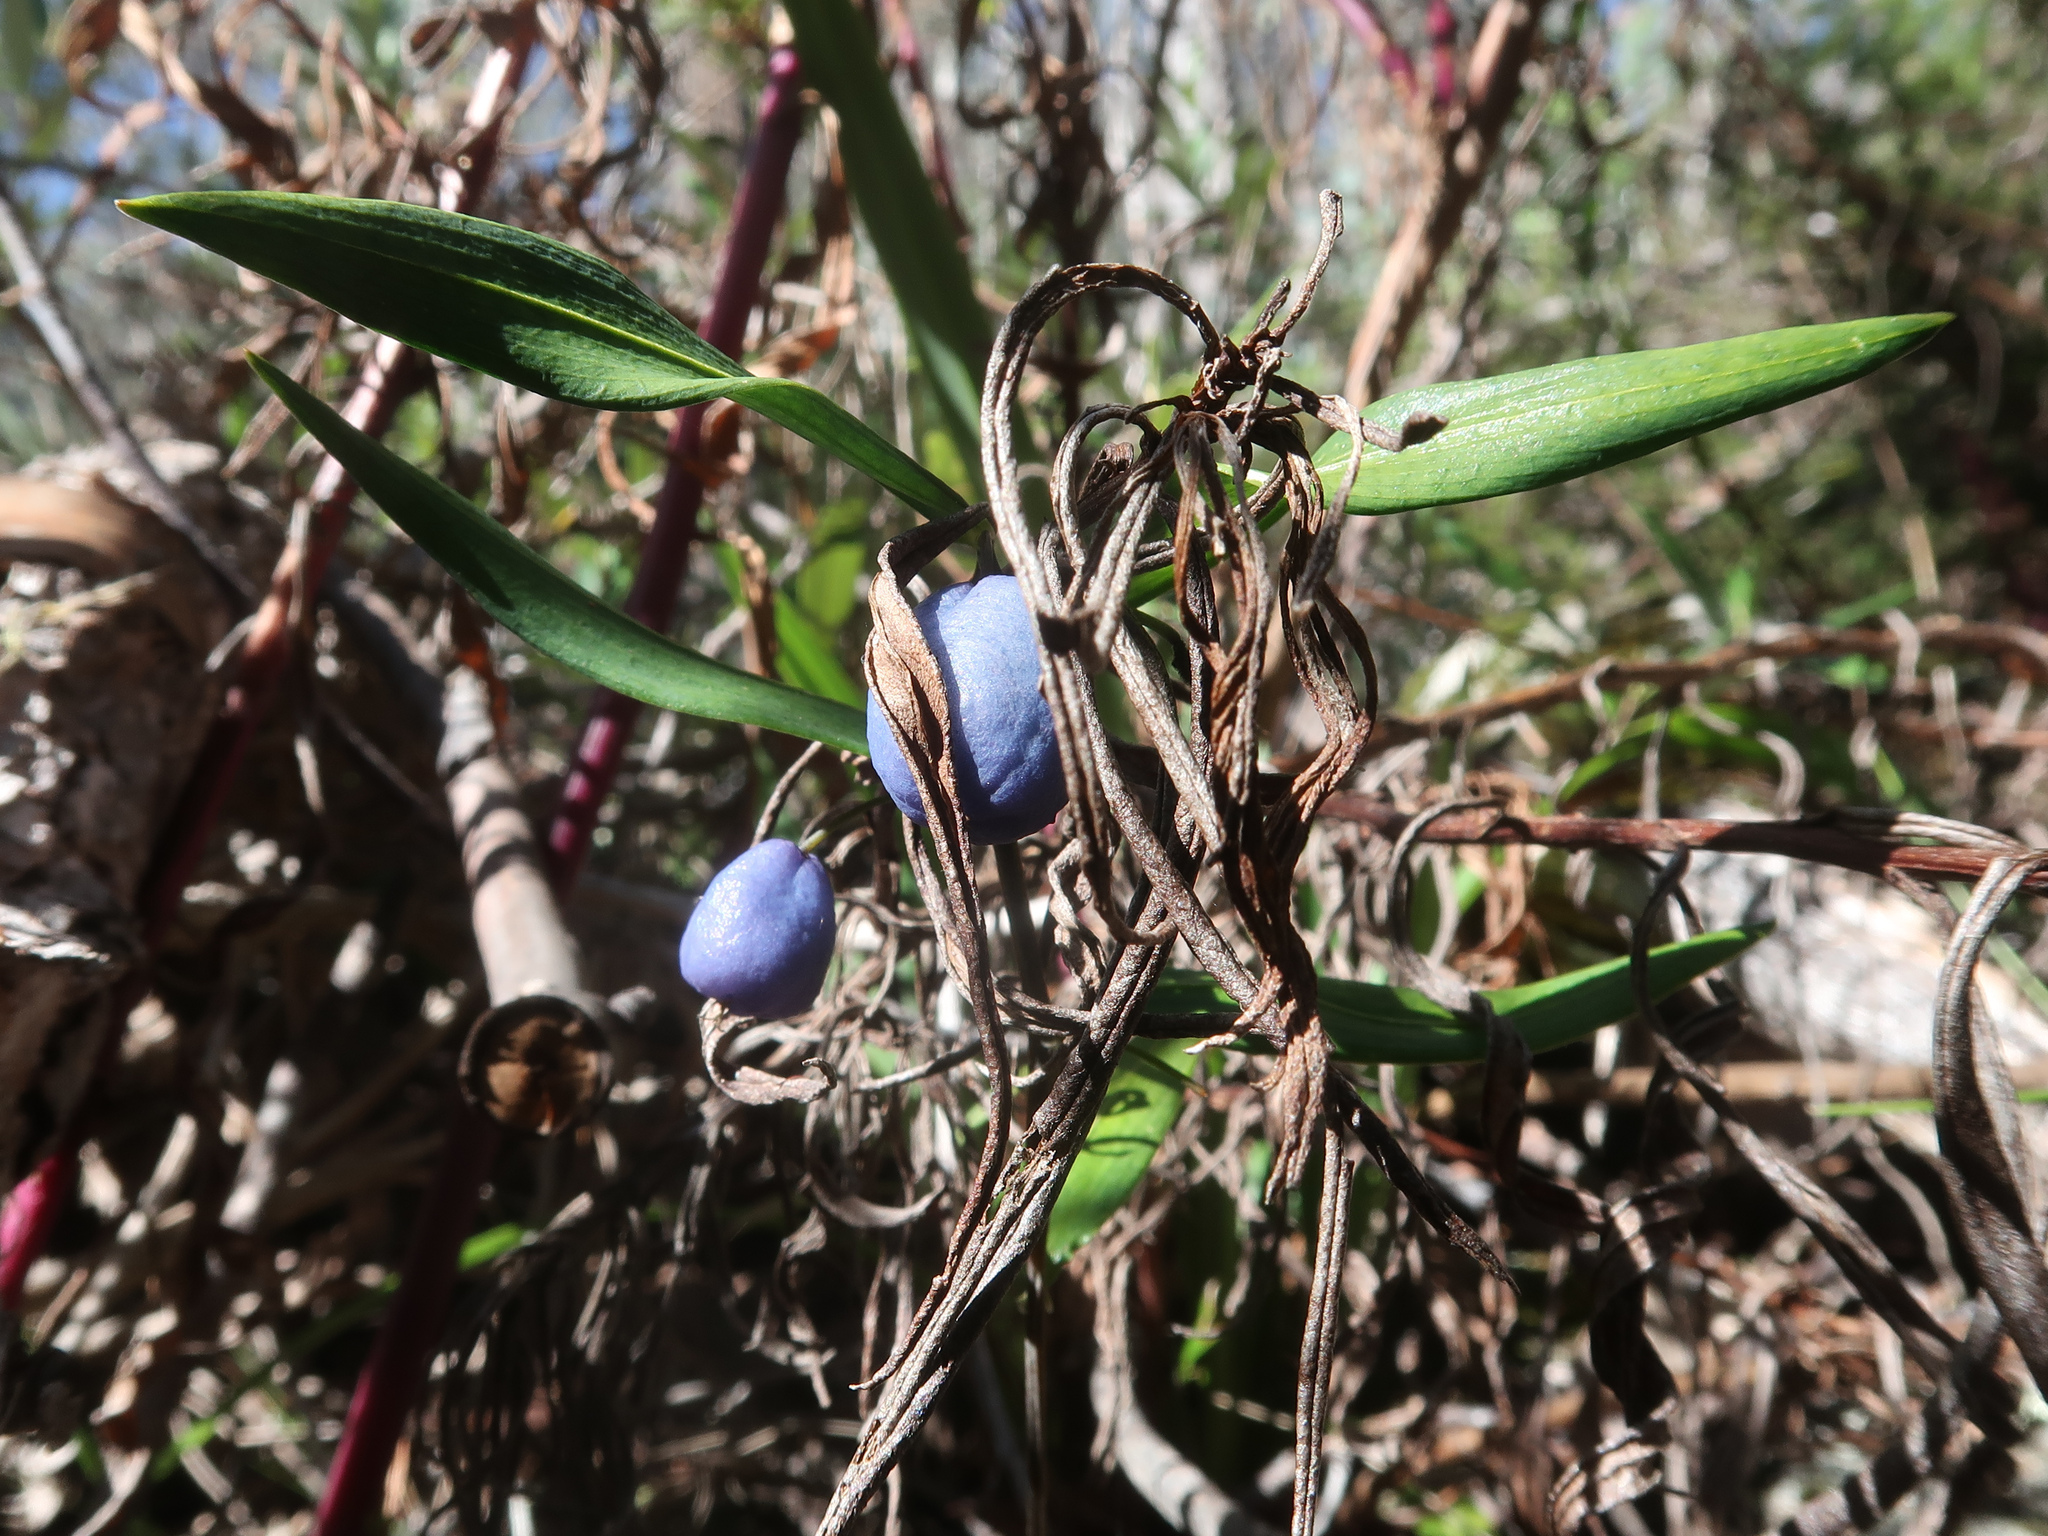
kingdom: Plantae
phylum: Tracheophyta
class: Liliopsida
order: Liliales
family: Alstroemeriaceae
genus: Drymophila
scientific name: Drymophila cyanocarpa
